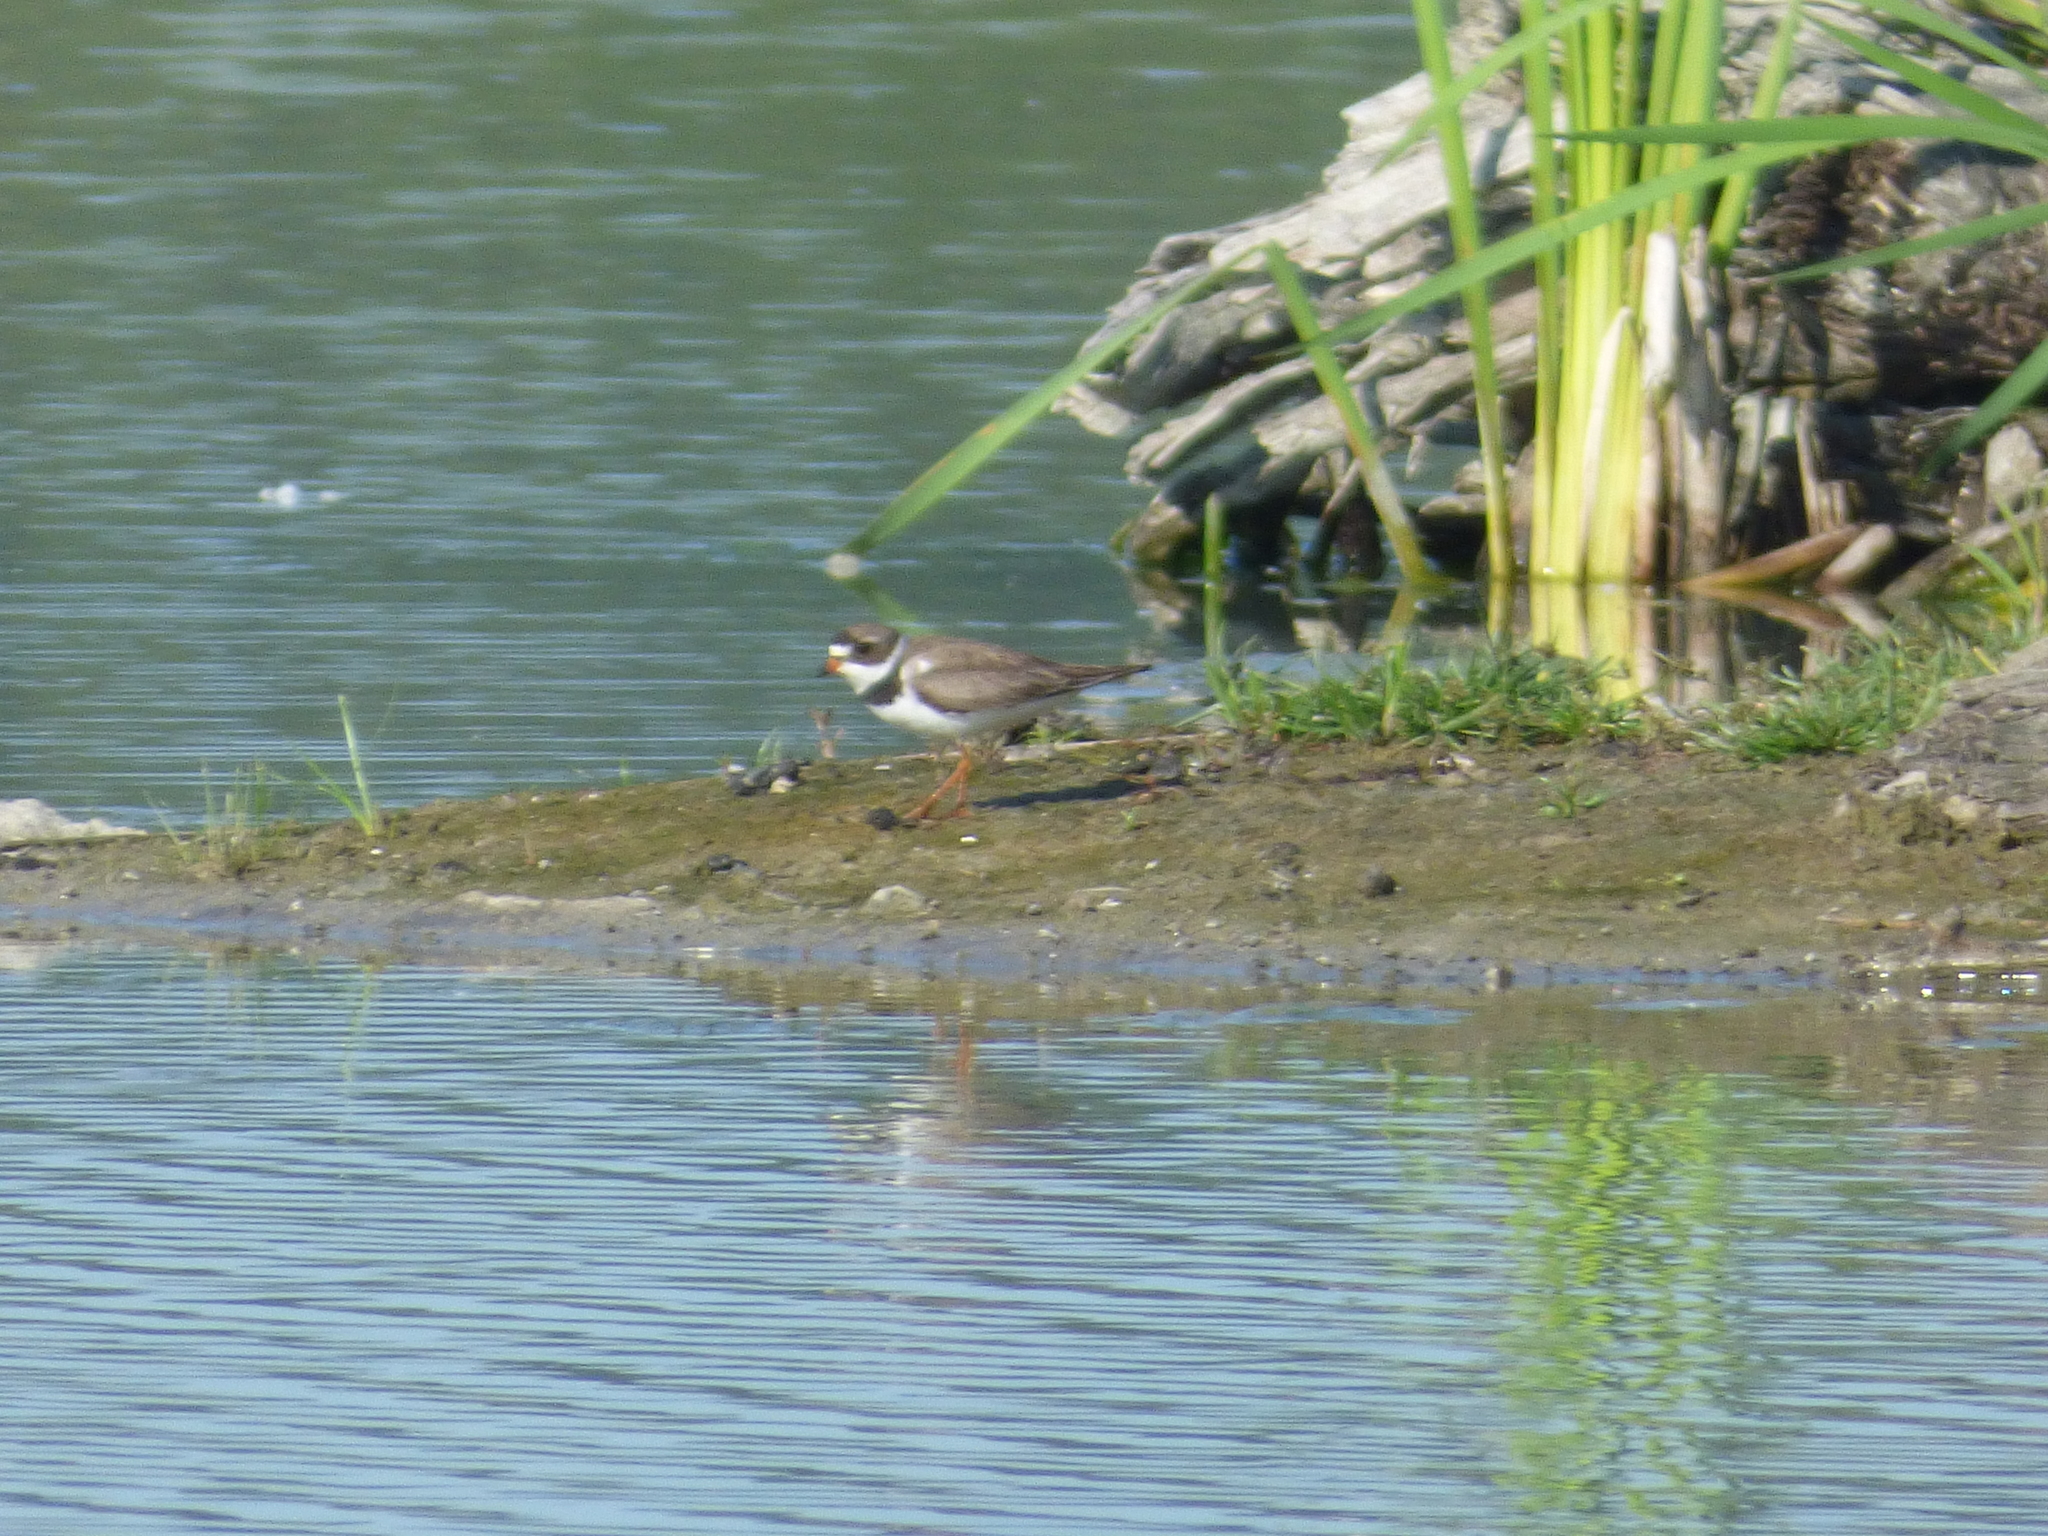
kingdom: Animalia
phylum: Chordata
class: Aves
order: Charadriiformes
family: Charadriidae
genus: Charadrius
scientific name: Charadrius semipalmatus
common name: Semipalmated plover
